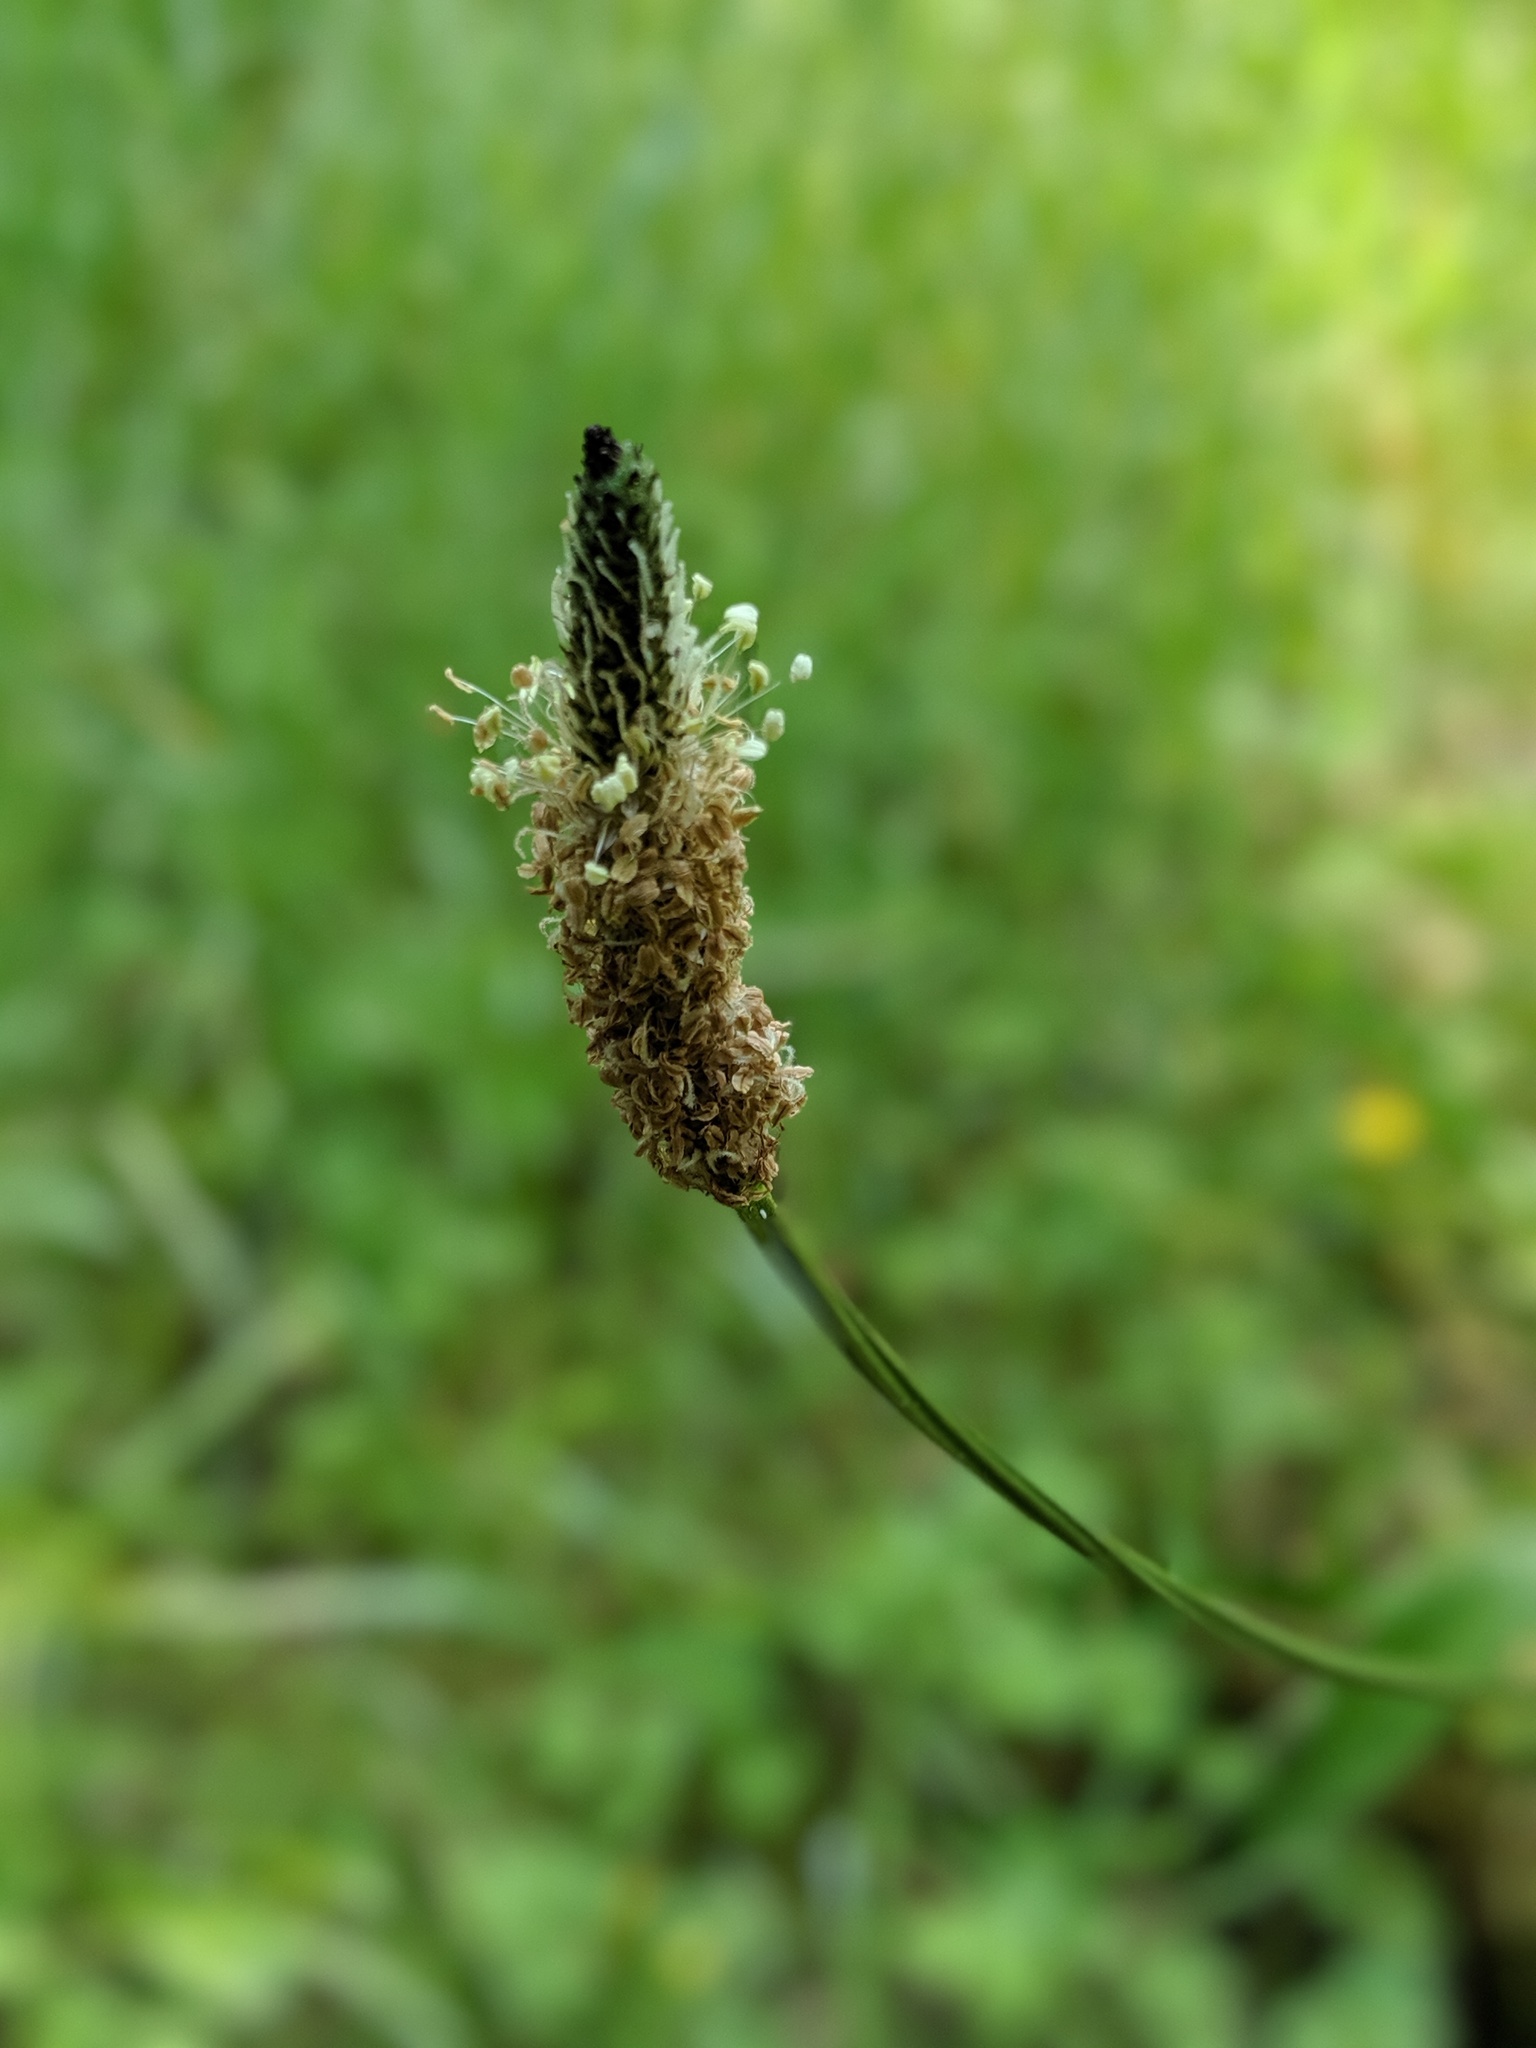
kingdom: Plantae
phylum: Tracheophyta
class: Magnoliopsida
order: Lamiales
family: Plantaginaceae
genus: Plantago
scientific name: Plantago lanceolata
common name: Ribwort plantain
